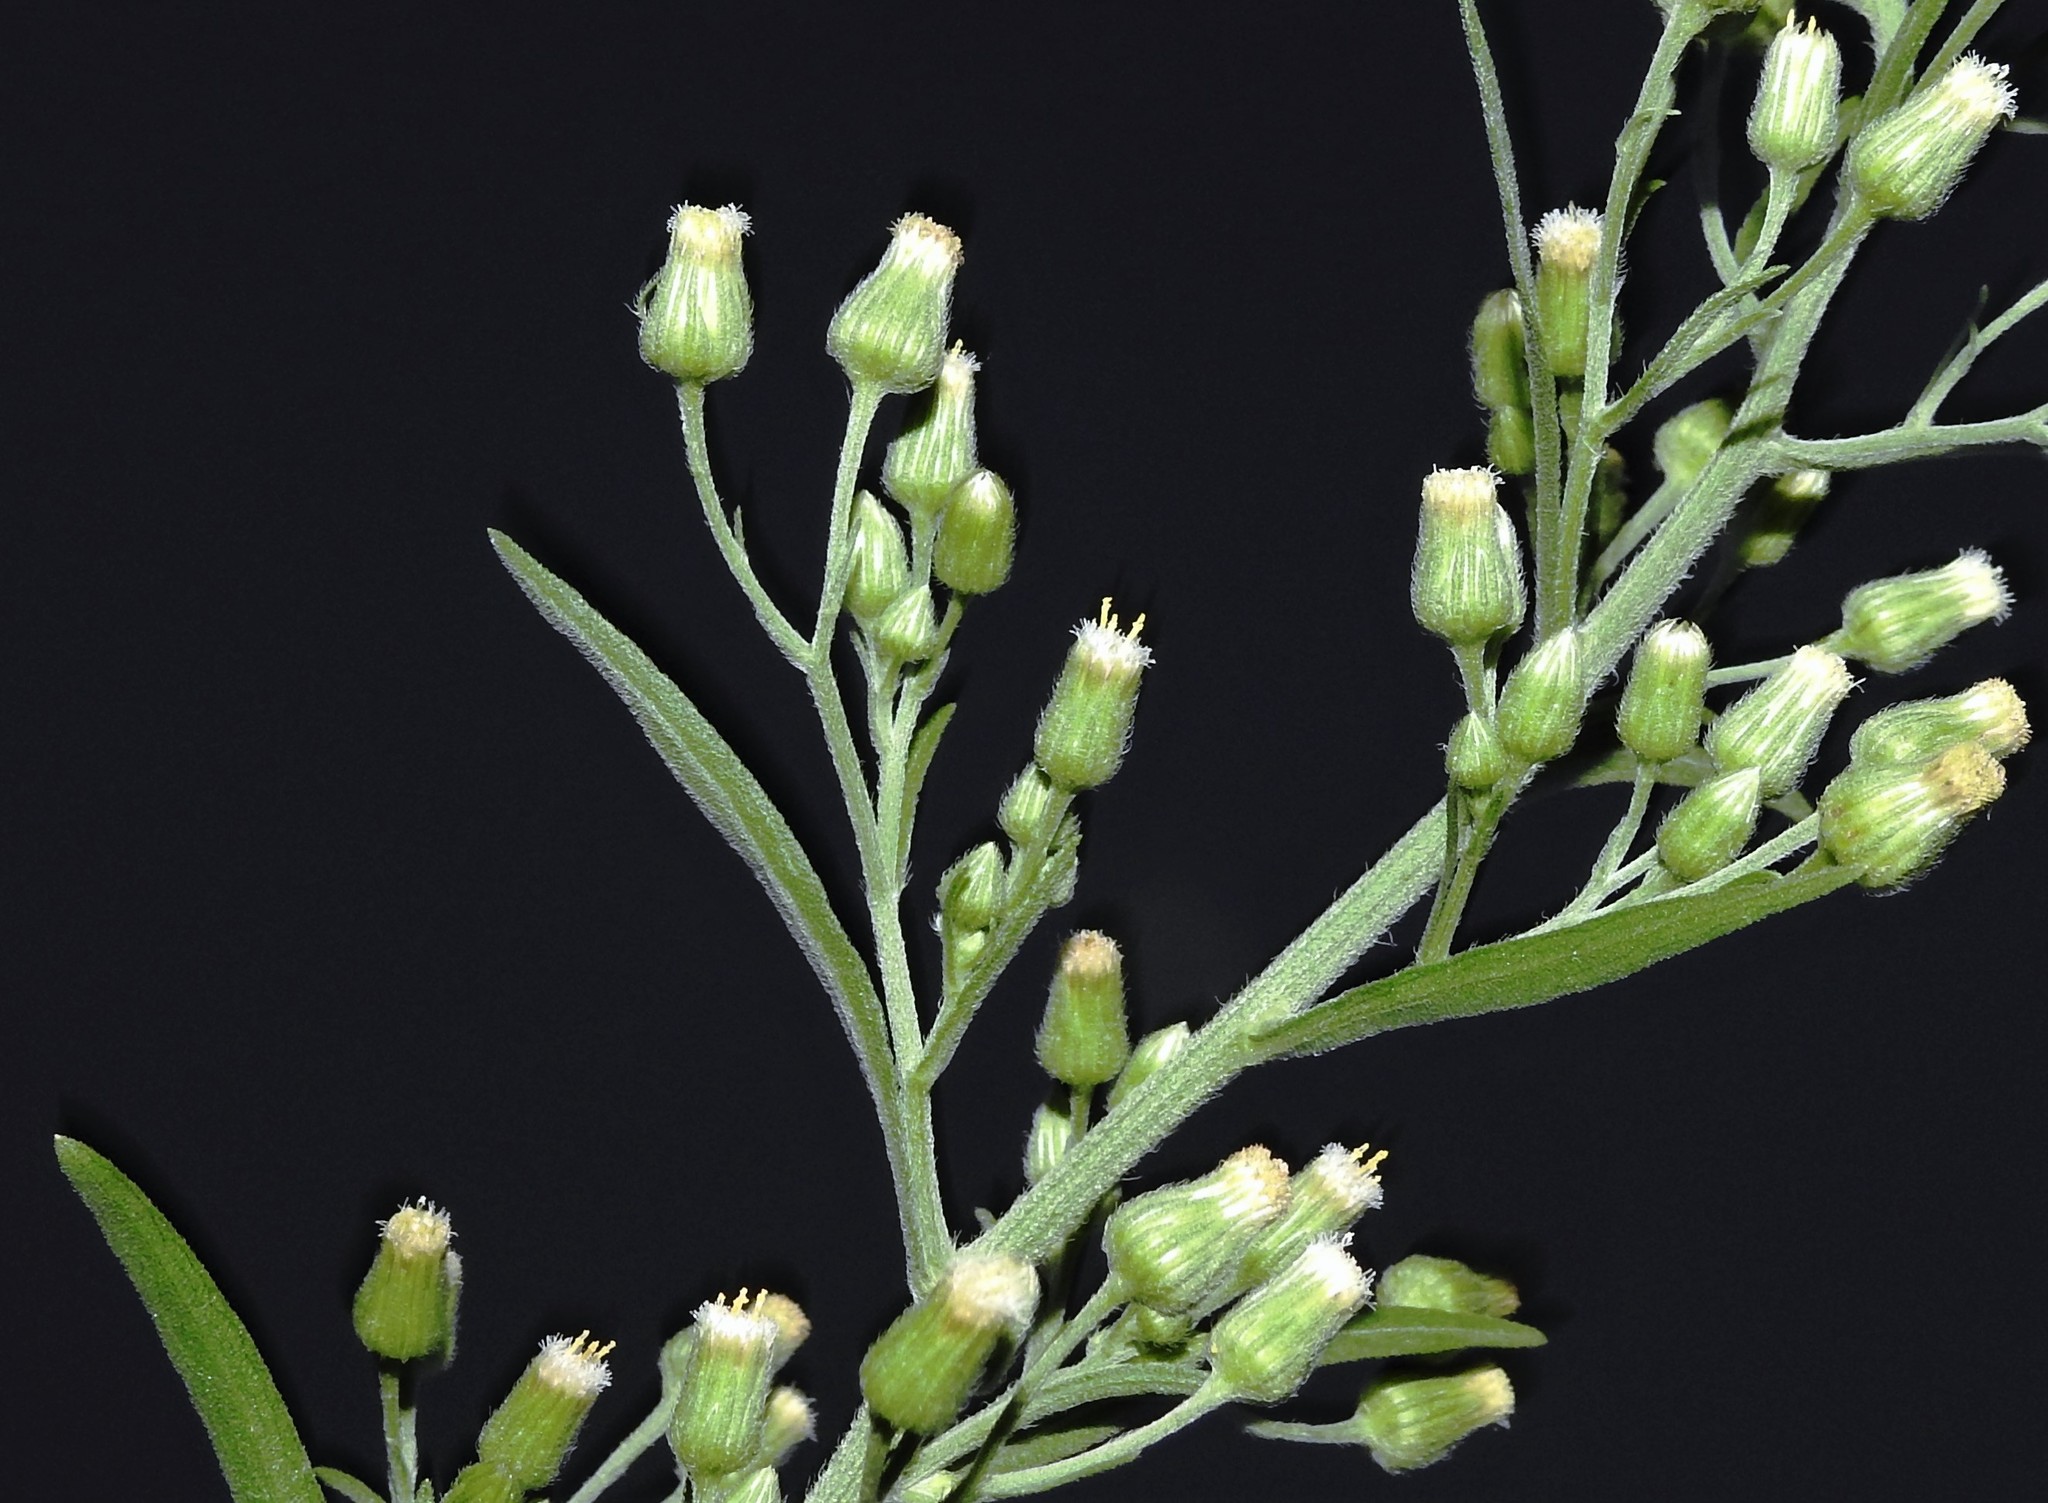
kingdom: Plantae
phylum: Tracheophyta
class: Magnoliopsida
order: Asterales
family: Asteraceae
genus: Erigeron
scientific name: Erigeron bonariensis
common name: Argentine fleabane
